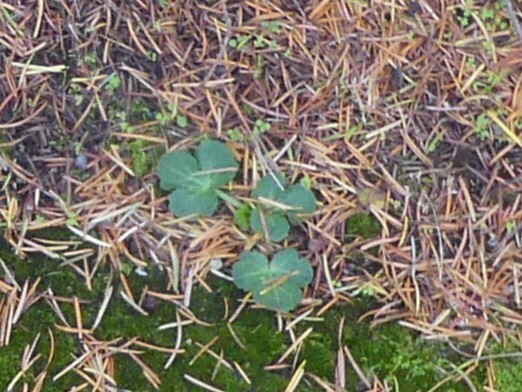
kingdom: Plantae
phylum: Tracheophyta
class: Magnoliopsida
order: Apiales
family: Apiaceae
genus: Sanicula
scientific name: Sanicula crassicaulis
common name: Western snakeroot
